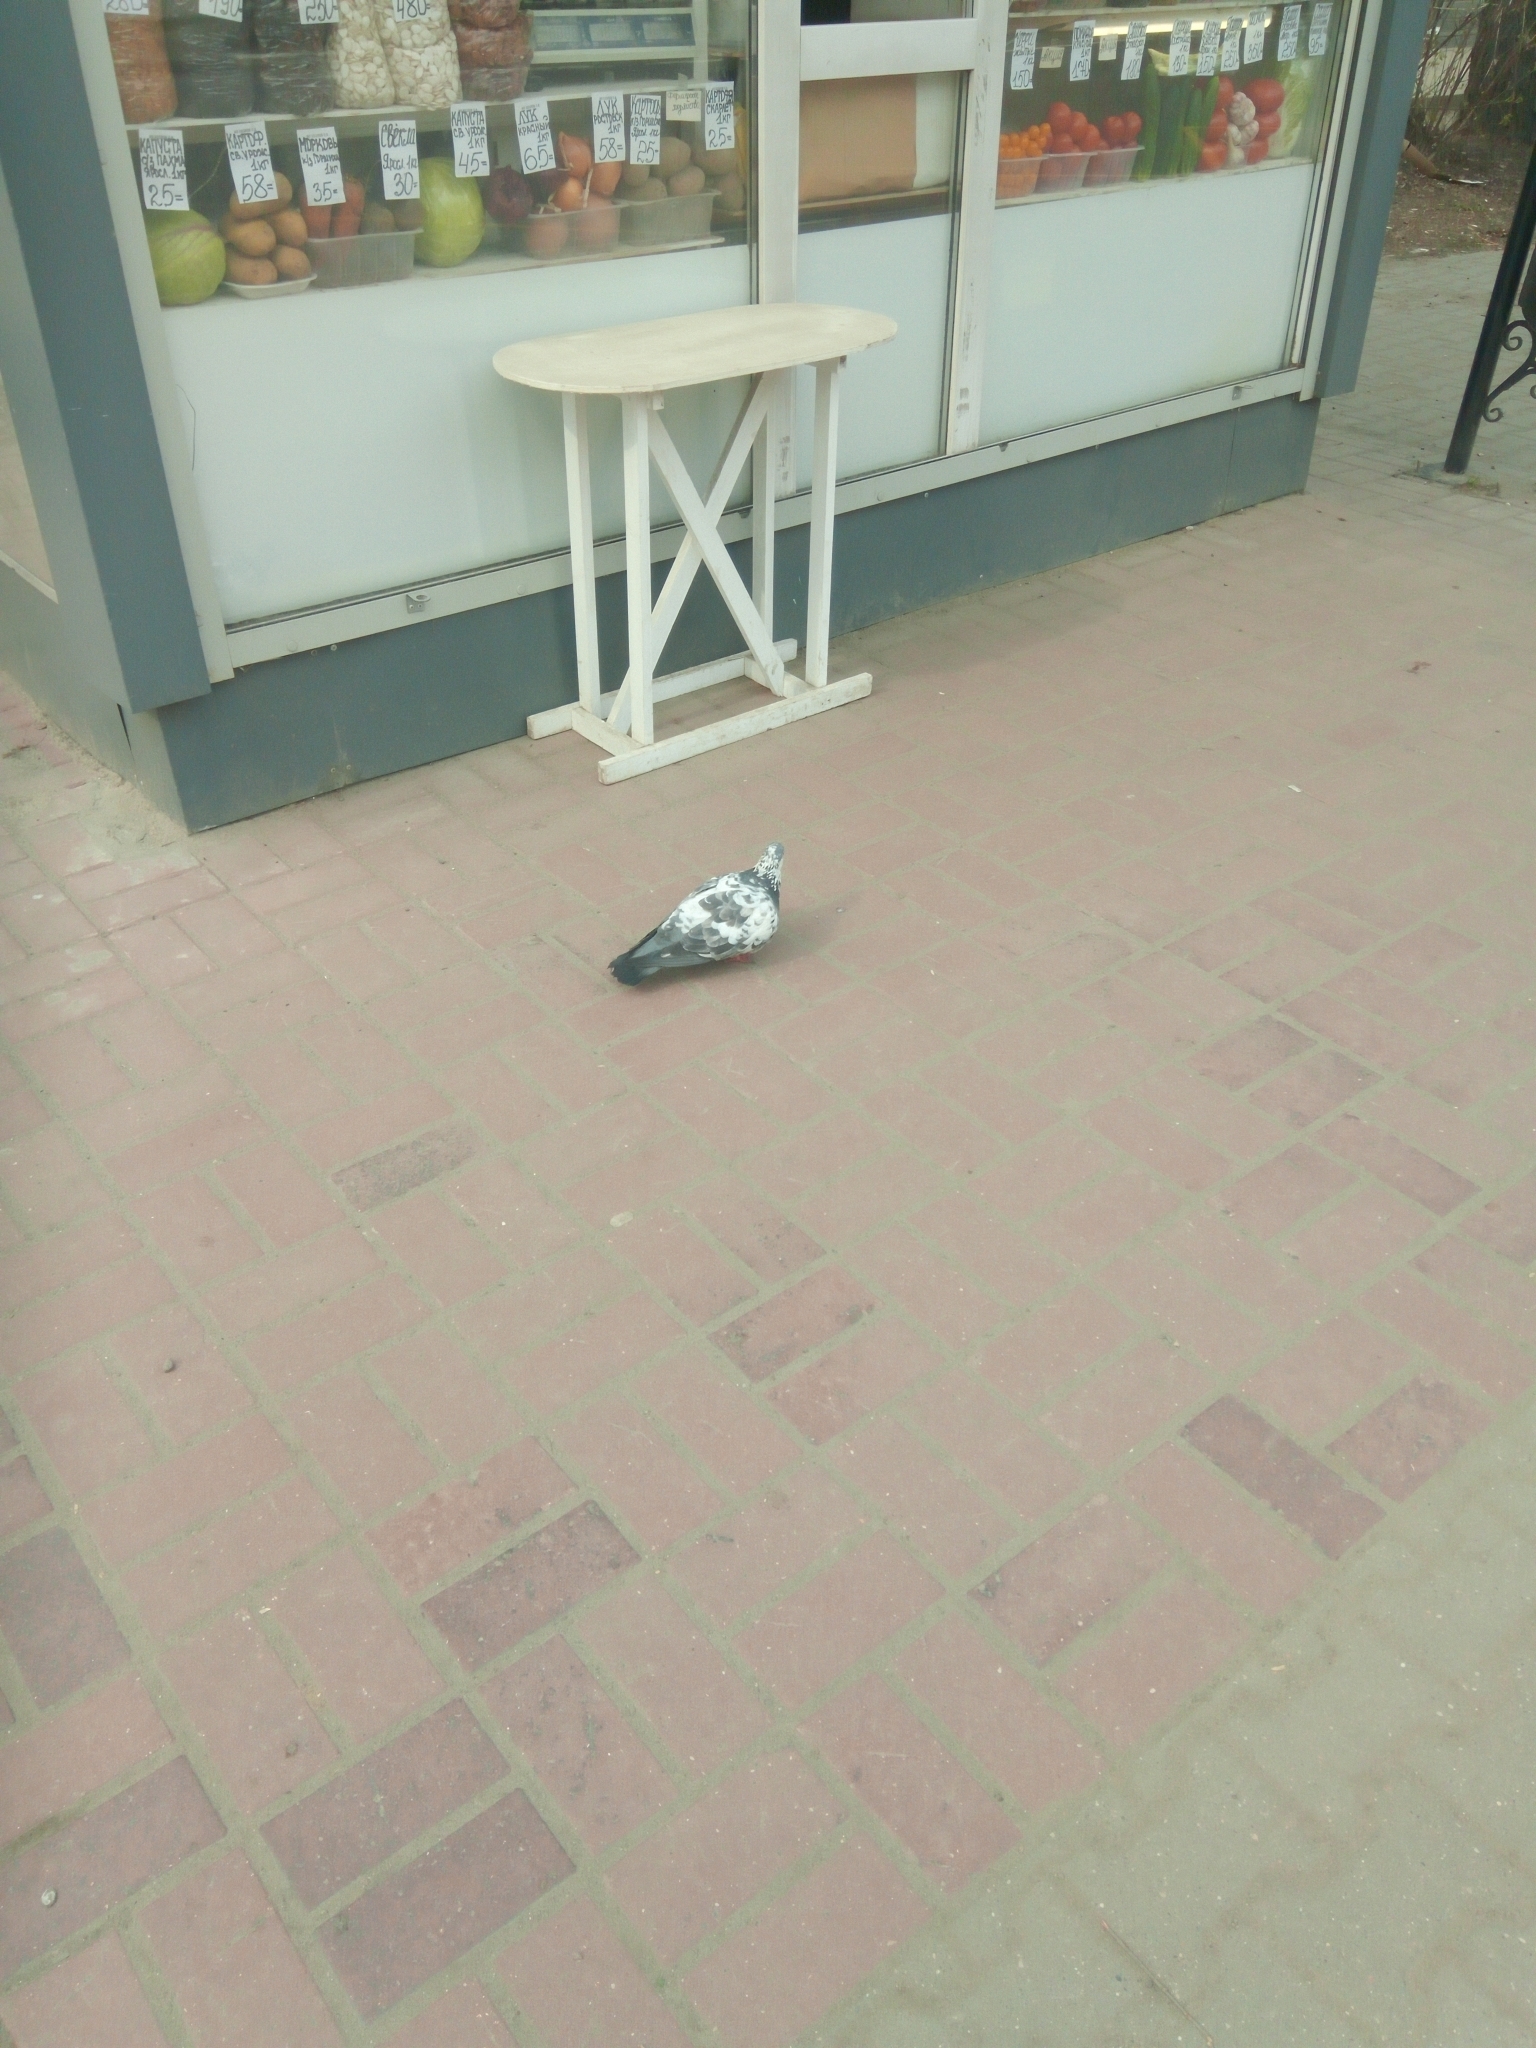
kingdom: Animalia
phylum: Chordata
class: Aves
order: Columbiformes
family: Columbidae
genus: Columba
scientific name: Columba livia
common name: Rock pigeon
